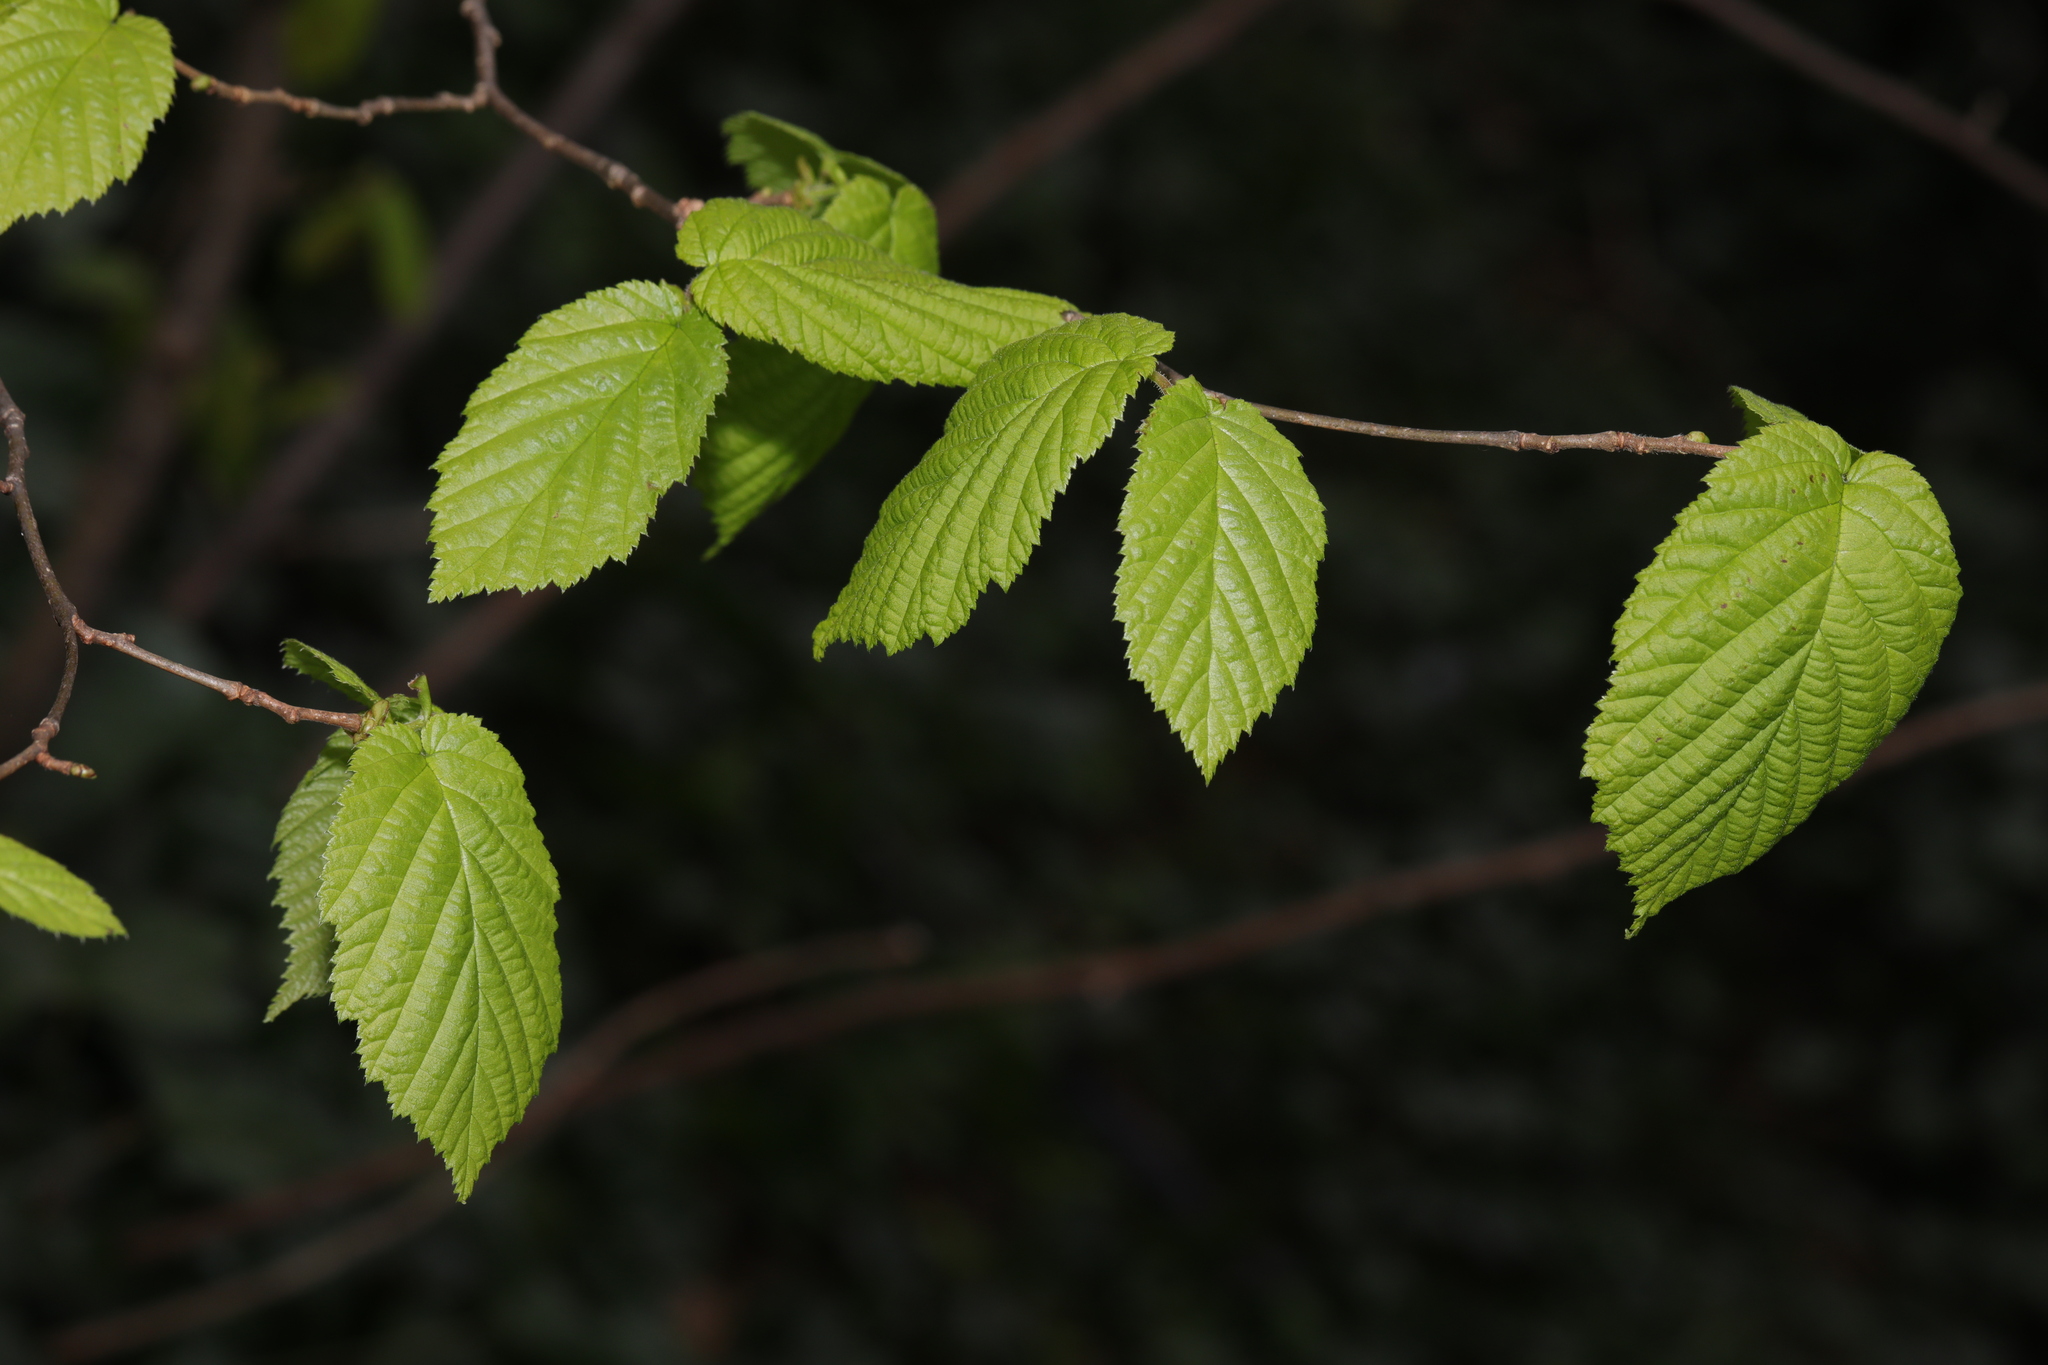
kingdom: Plantae
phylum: Tracheophyta
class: Magnoliopsida
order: Fagales
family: Betulaceae
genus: Corylus
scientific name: Corylus avellana
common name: European hazel
